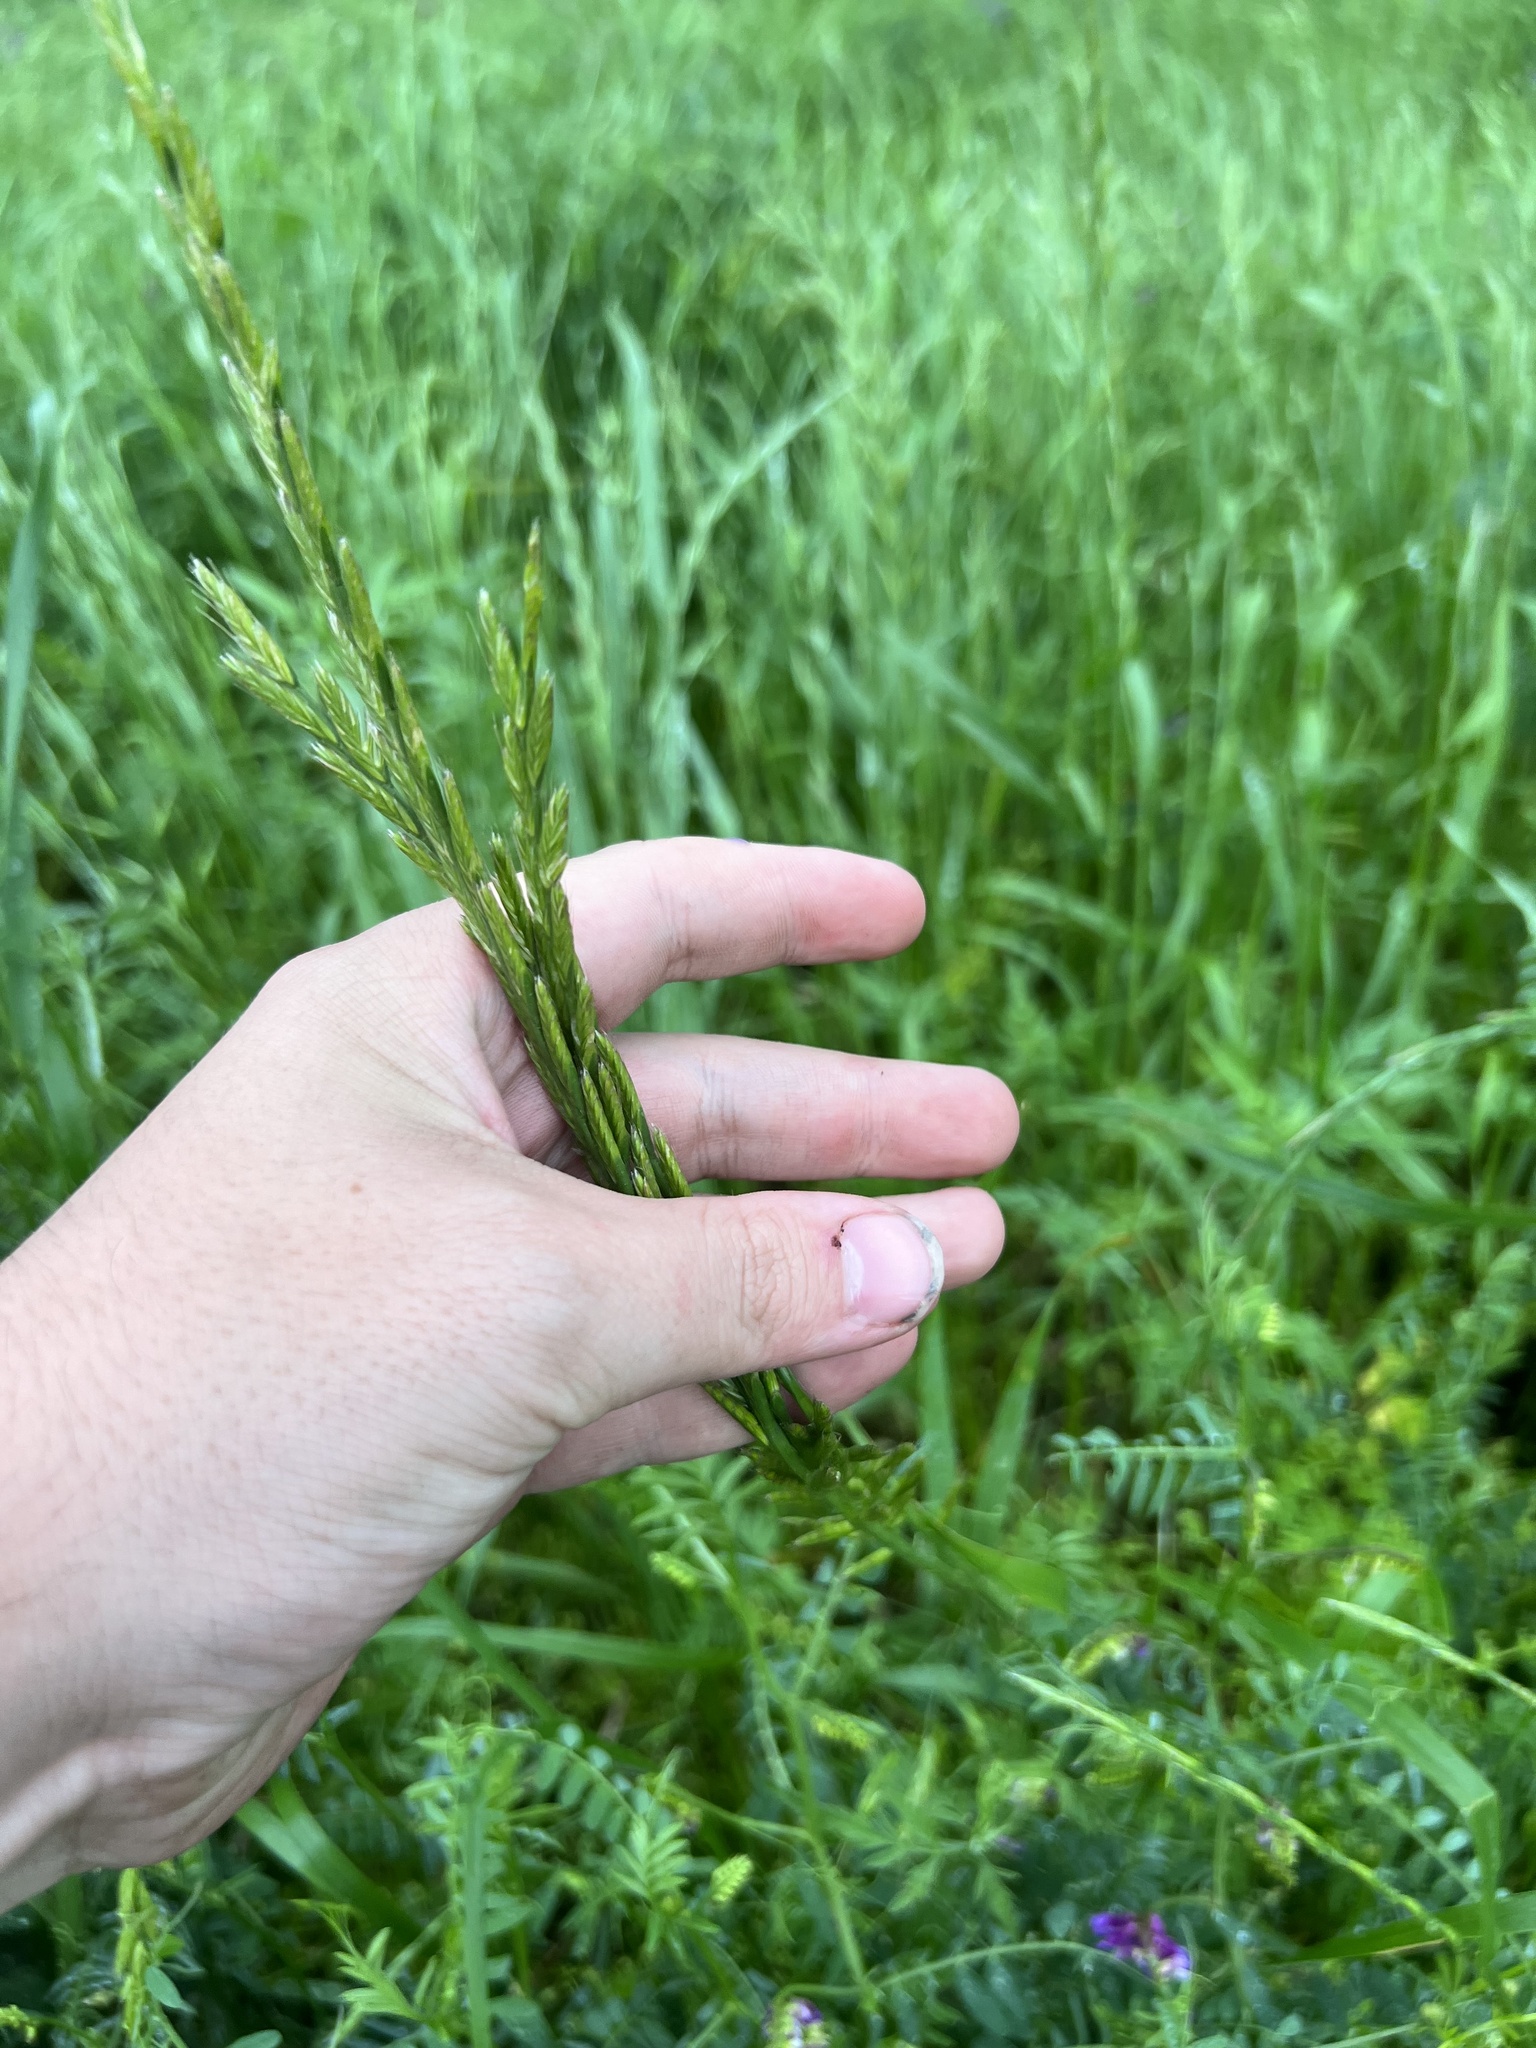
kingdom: Plantae
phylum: Tracheophyta
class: Liliopsida
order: Poales
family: Poaceae
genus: Lolium
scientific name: Lolium multiflorum
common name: Annual ryegrass
